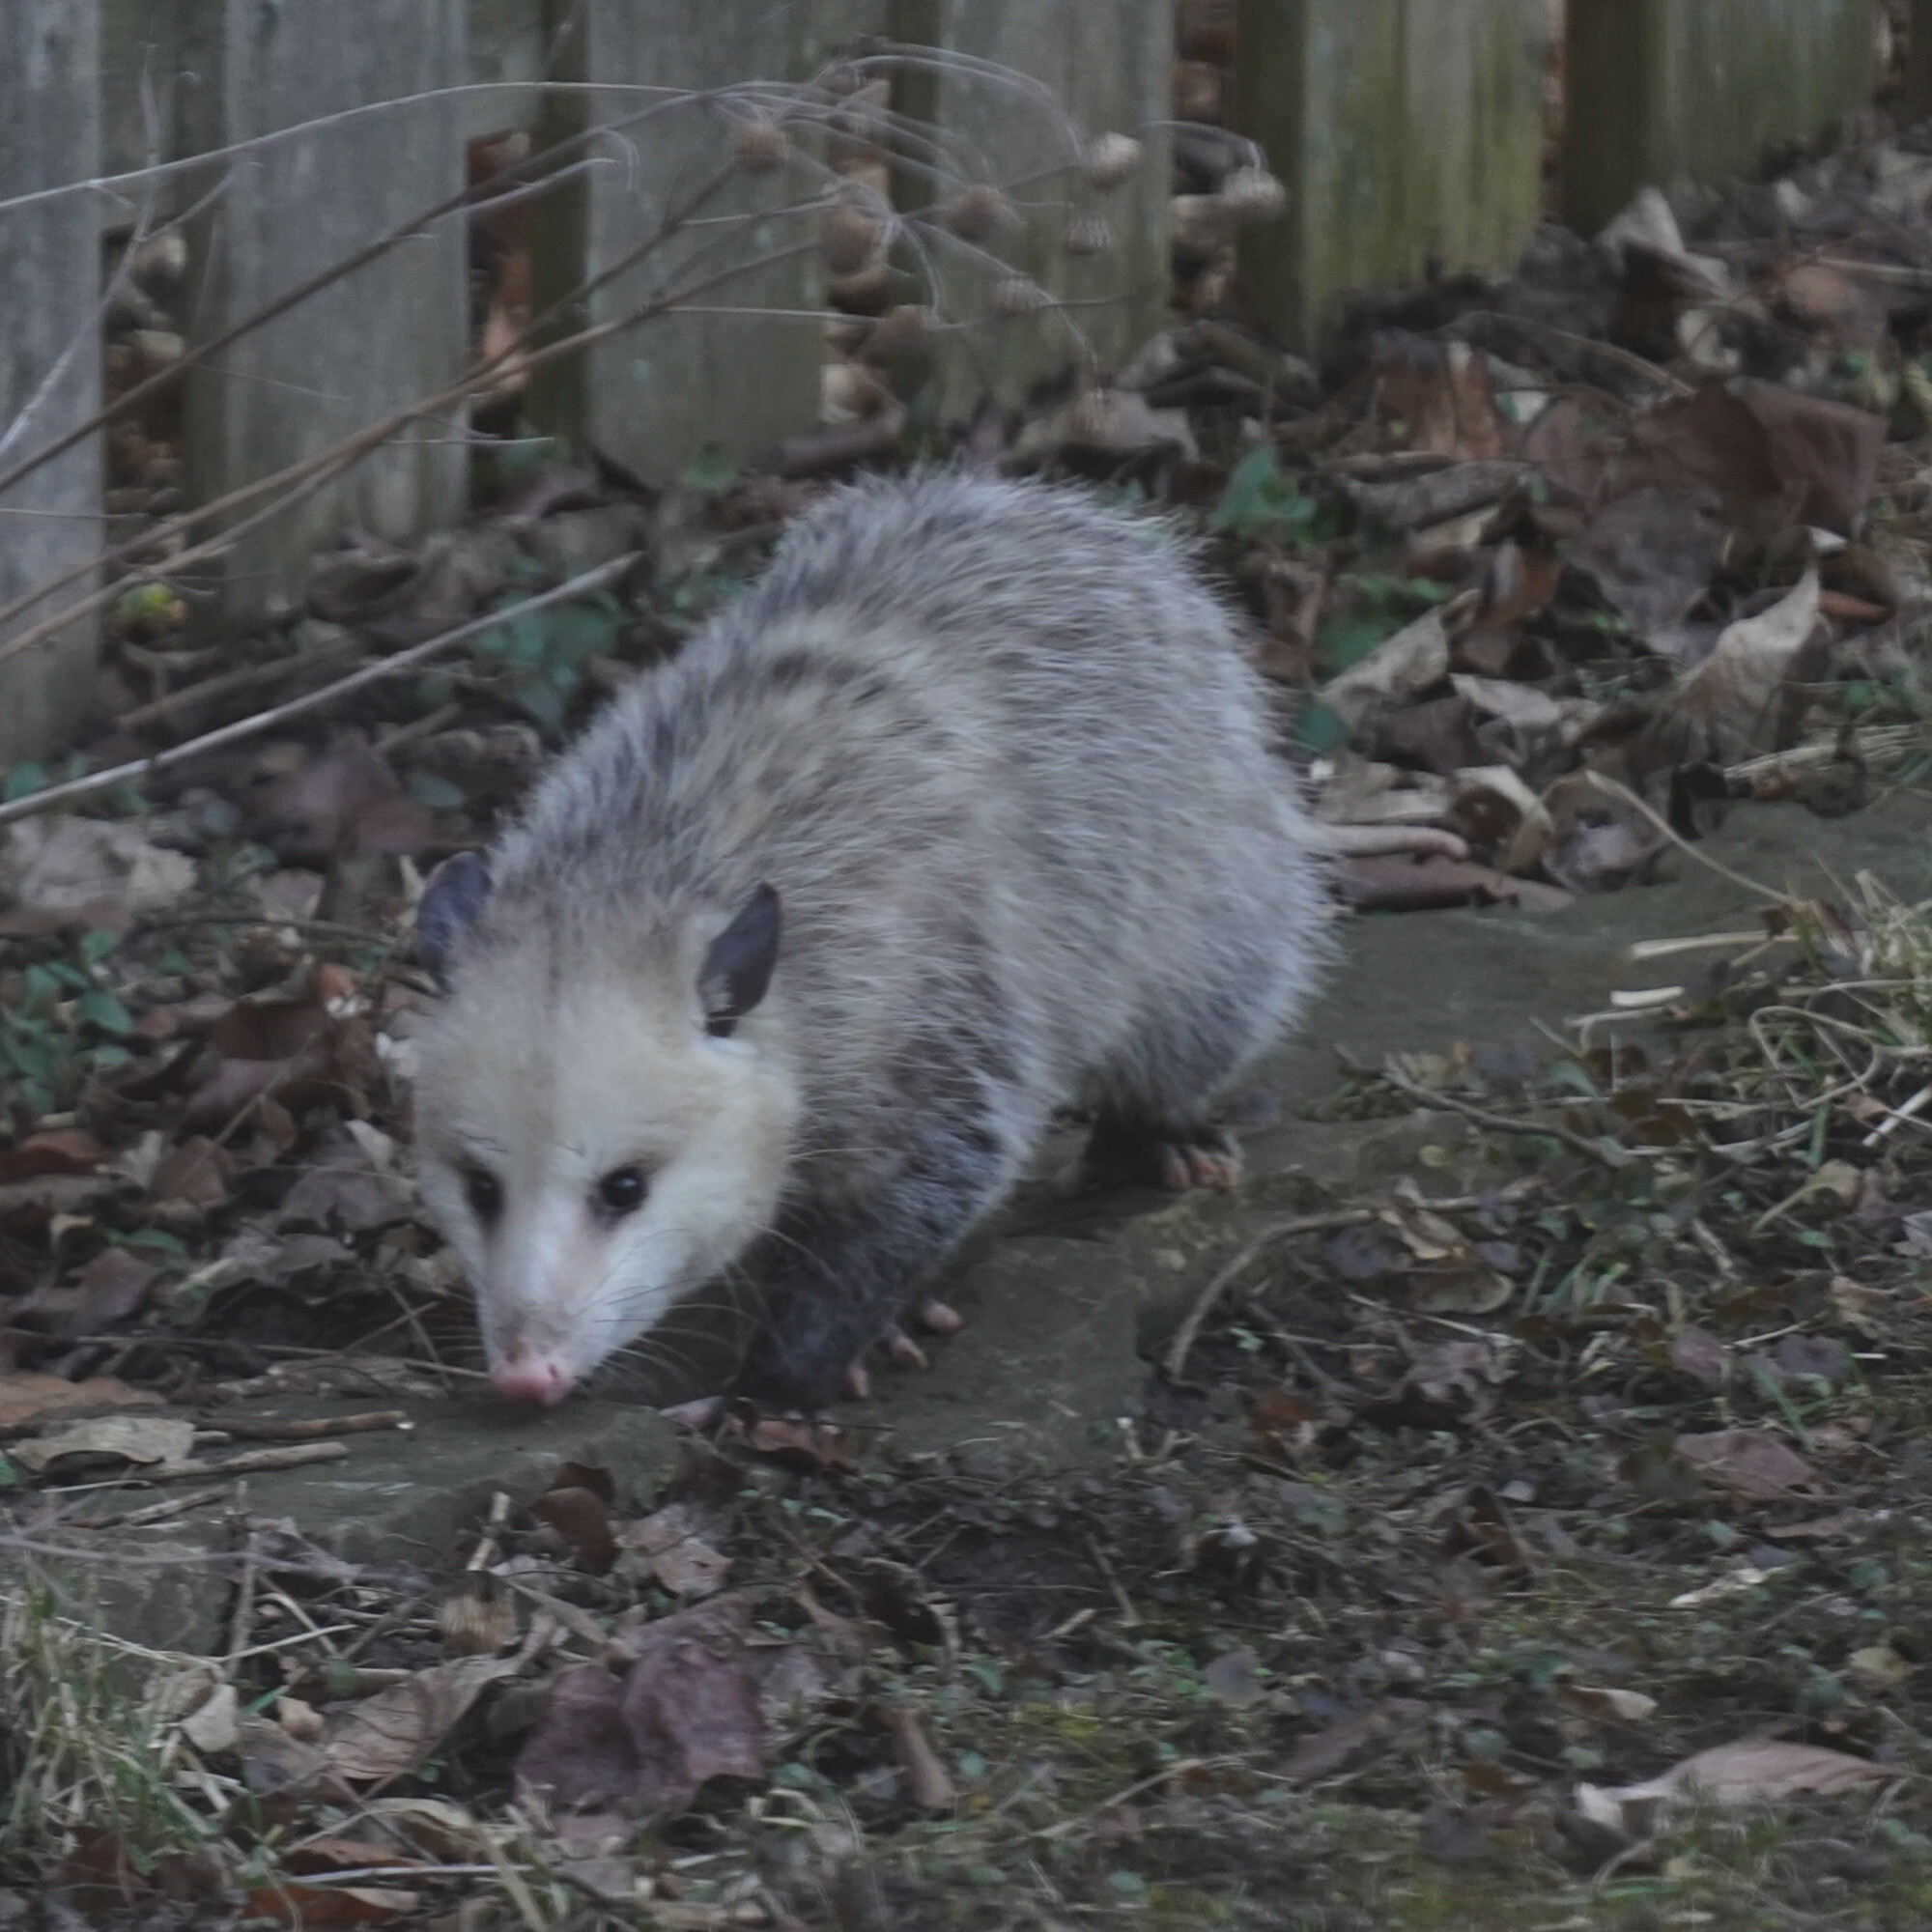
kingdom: Animalia
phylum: Chordata
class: Mammalia
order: Didelphimorphia
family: Didelphidae
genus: Didelphis
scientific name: Didelphis virginiana
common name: Virginia opossum
